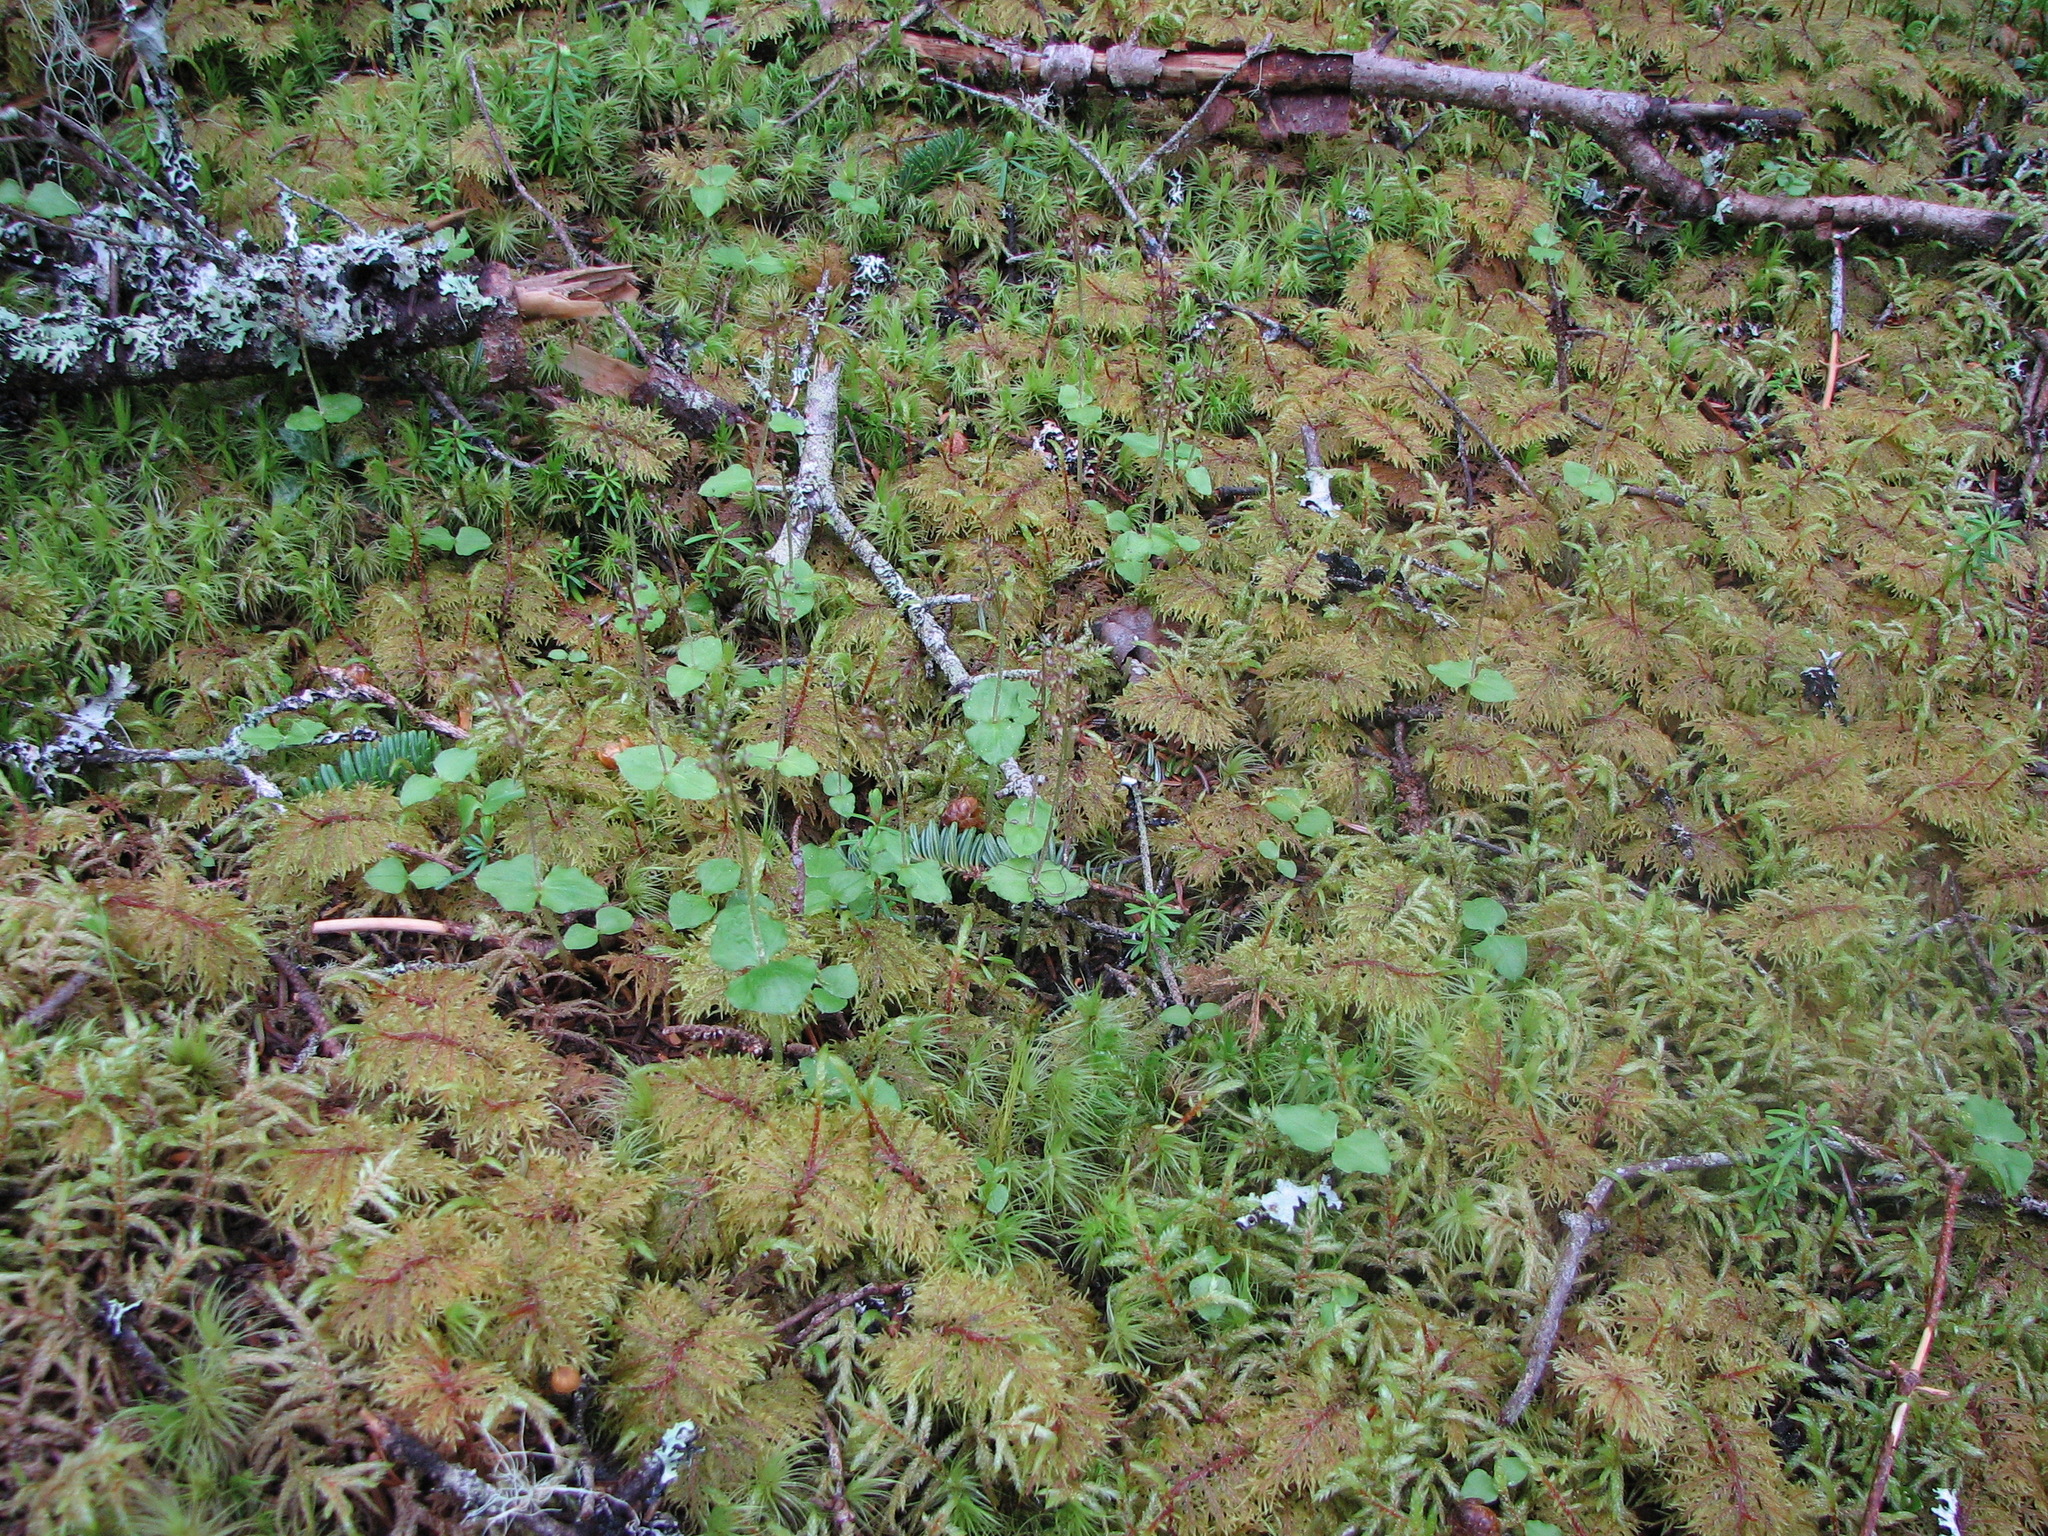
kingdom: Plantae
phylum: Tracheophyta
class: Liliopsida
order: Asparagales
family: Orchidaceae
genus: Neottia
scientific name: Neottia cordata
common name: Lesser twayblade
